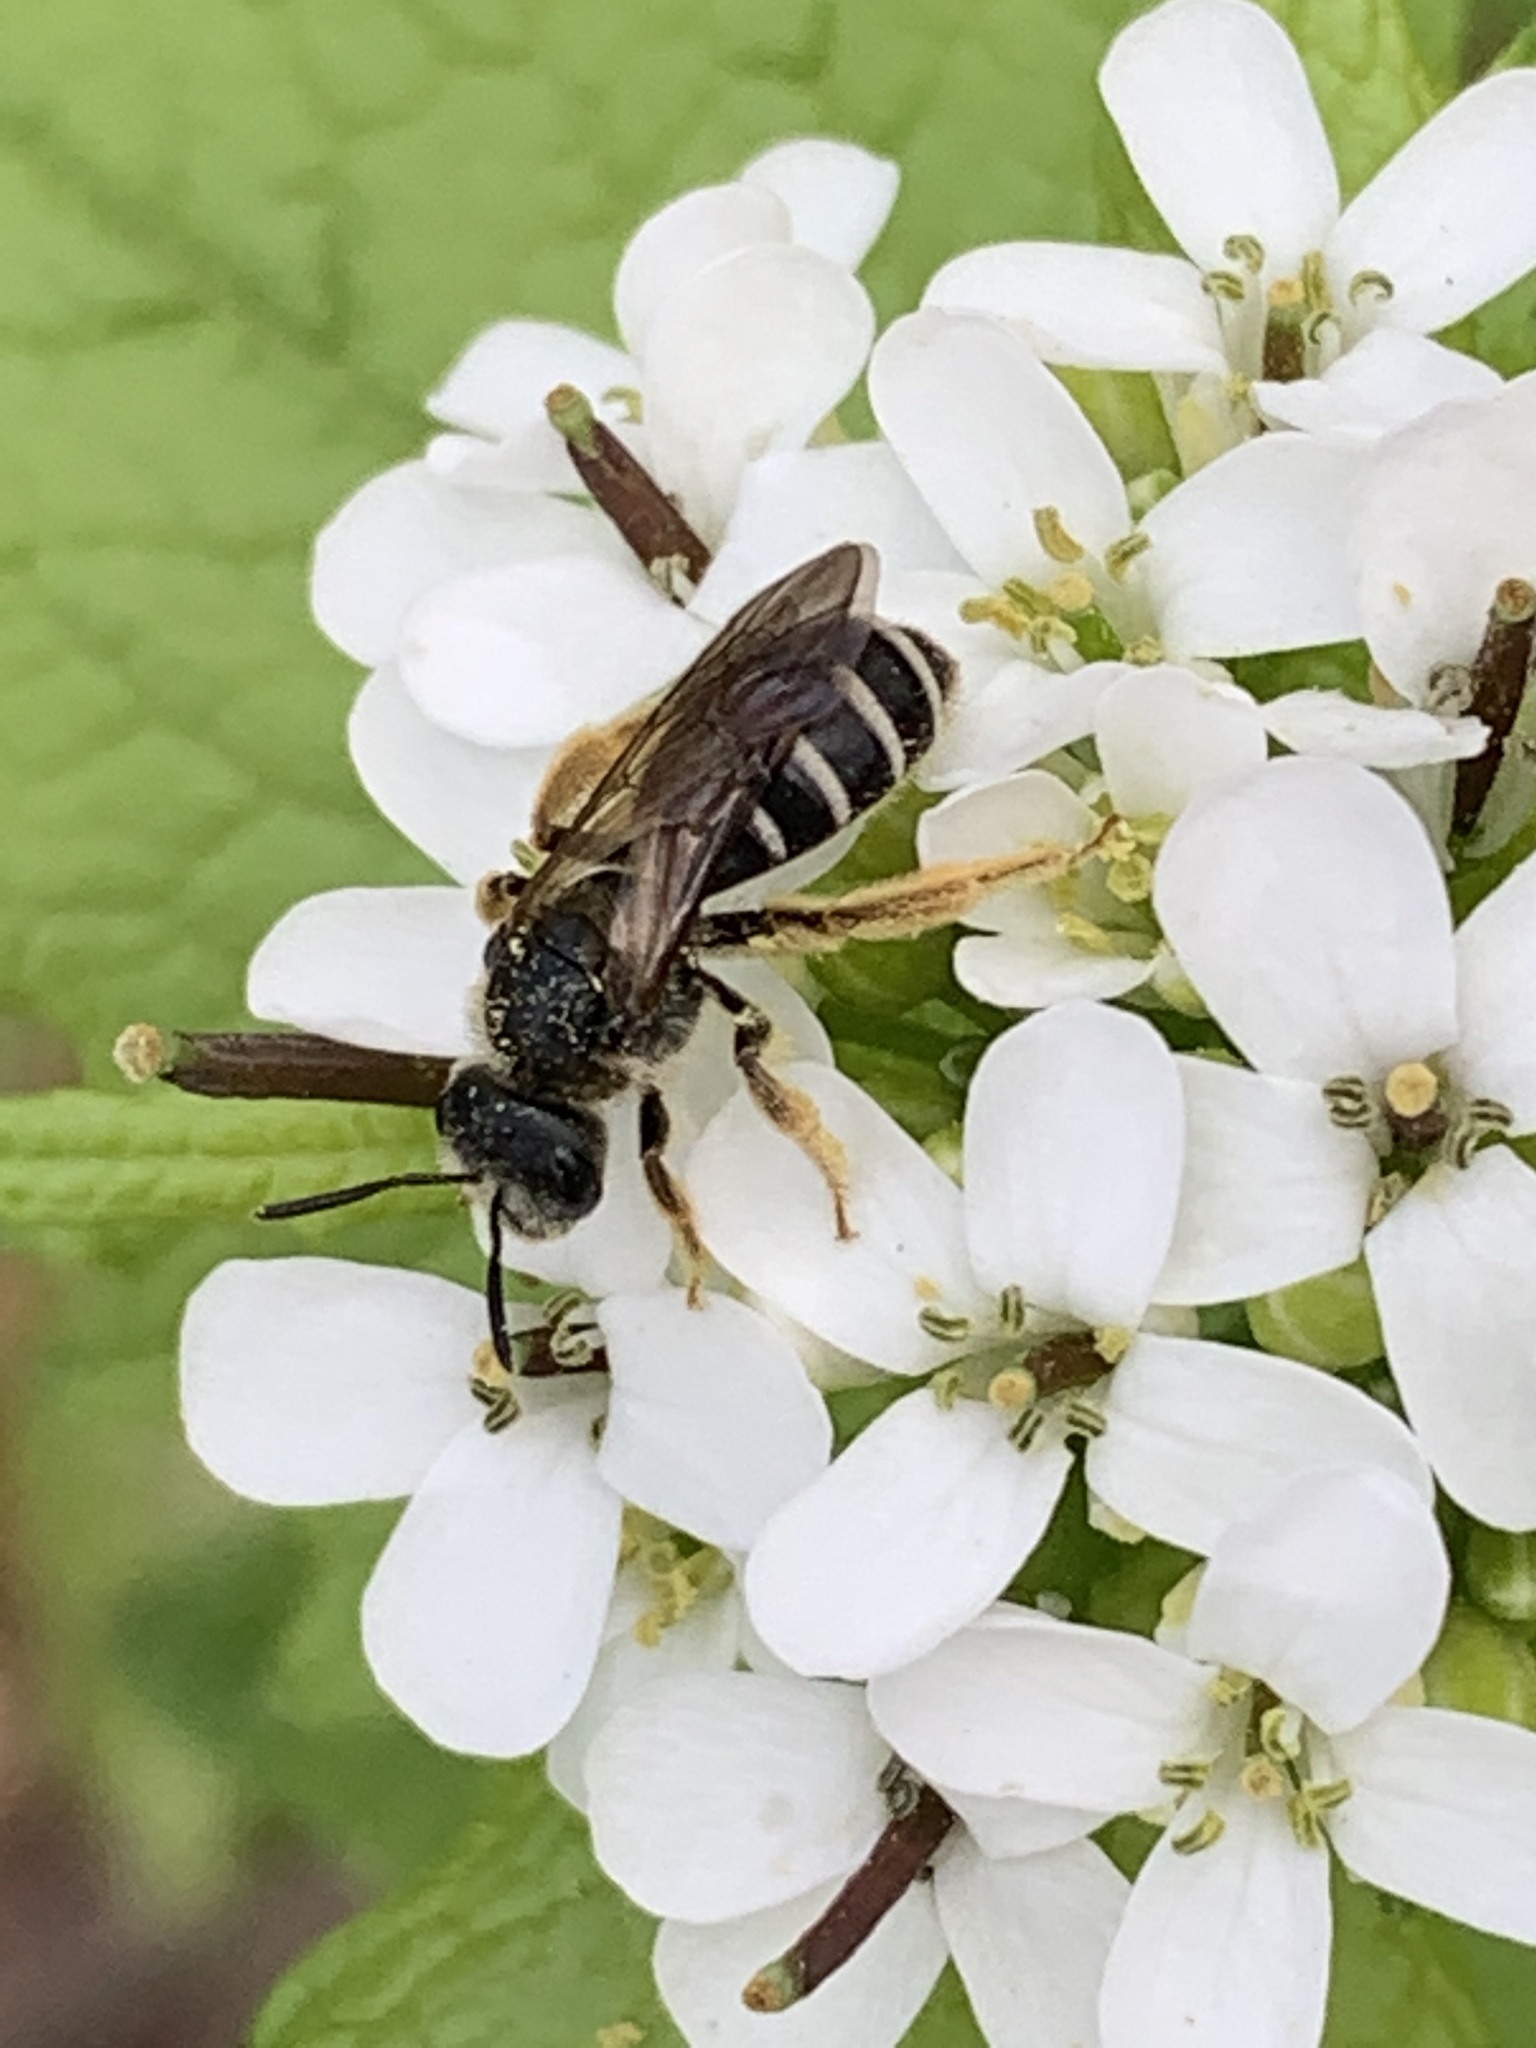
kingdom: Animalia
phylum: Arthropoda
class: Insecta
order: Hymenoptera
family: Halictidae
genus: Halictus
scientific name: Halictus rubicundus
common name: Orange-legged furrow bee
